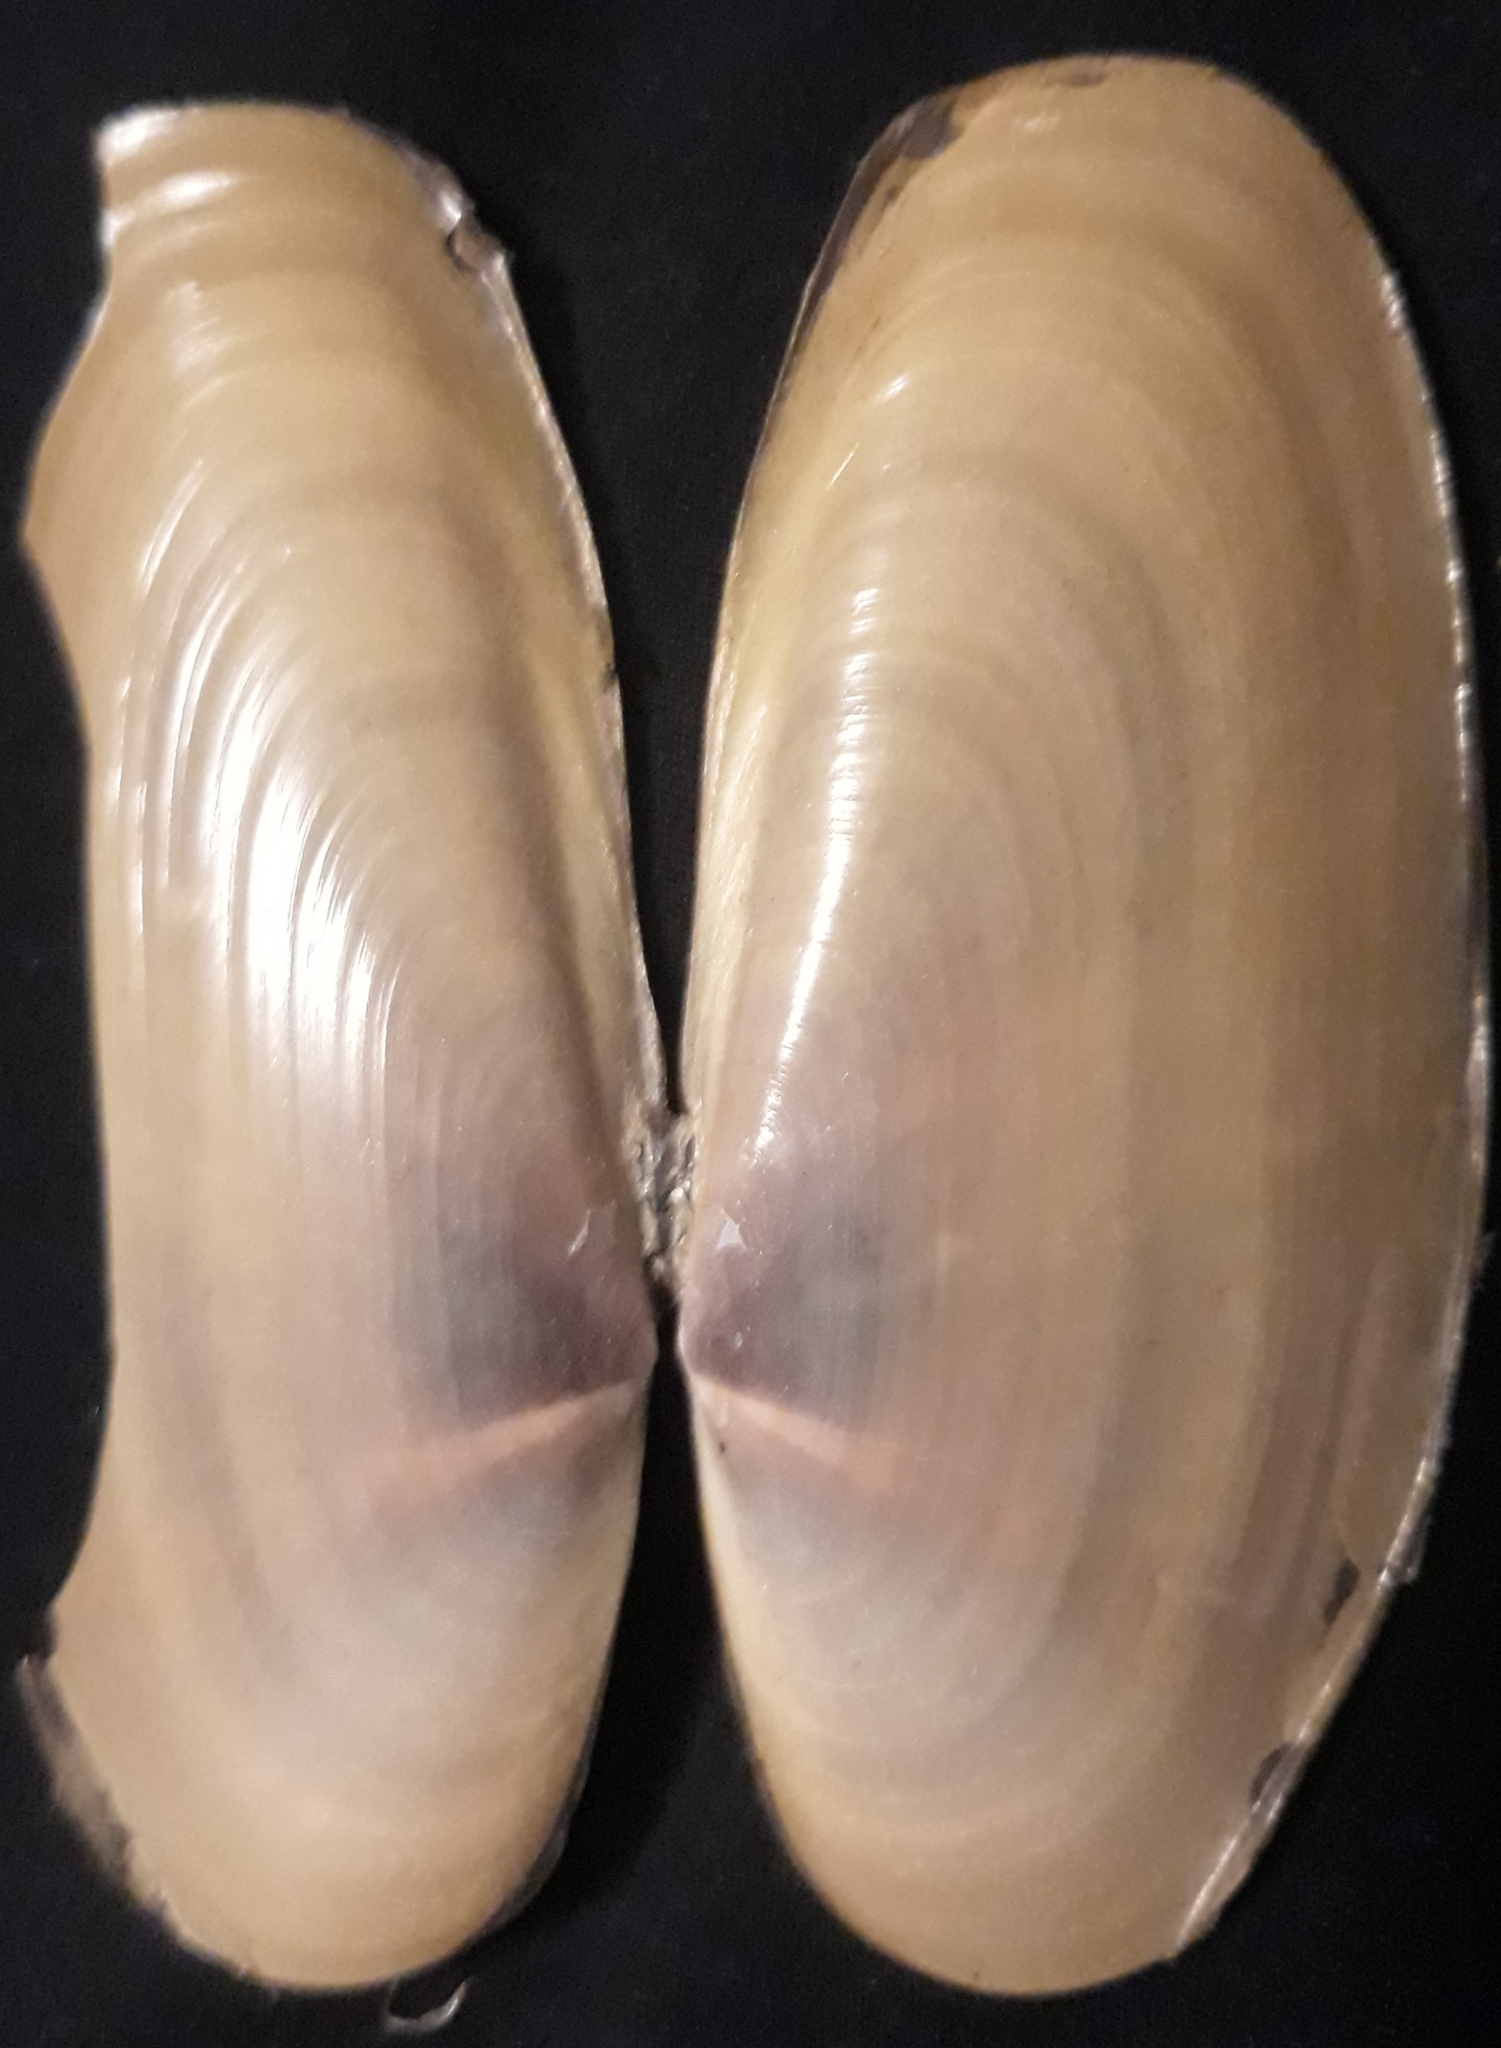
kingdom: Animalia
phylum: Mollusca
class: Bivalvia
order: Adapedonta
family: Pharidae
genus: Siliqua
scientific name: Siliqua patula
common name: Pacific razor clam
